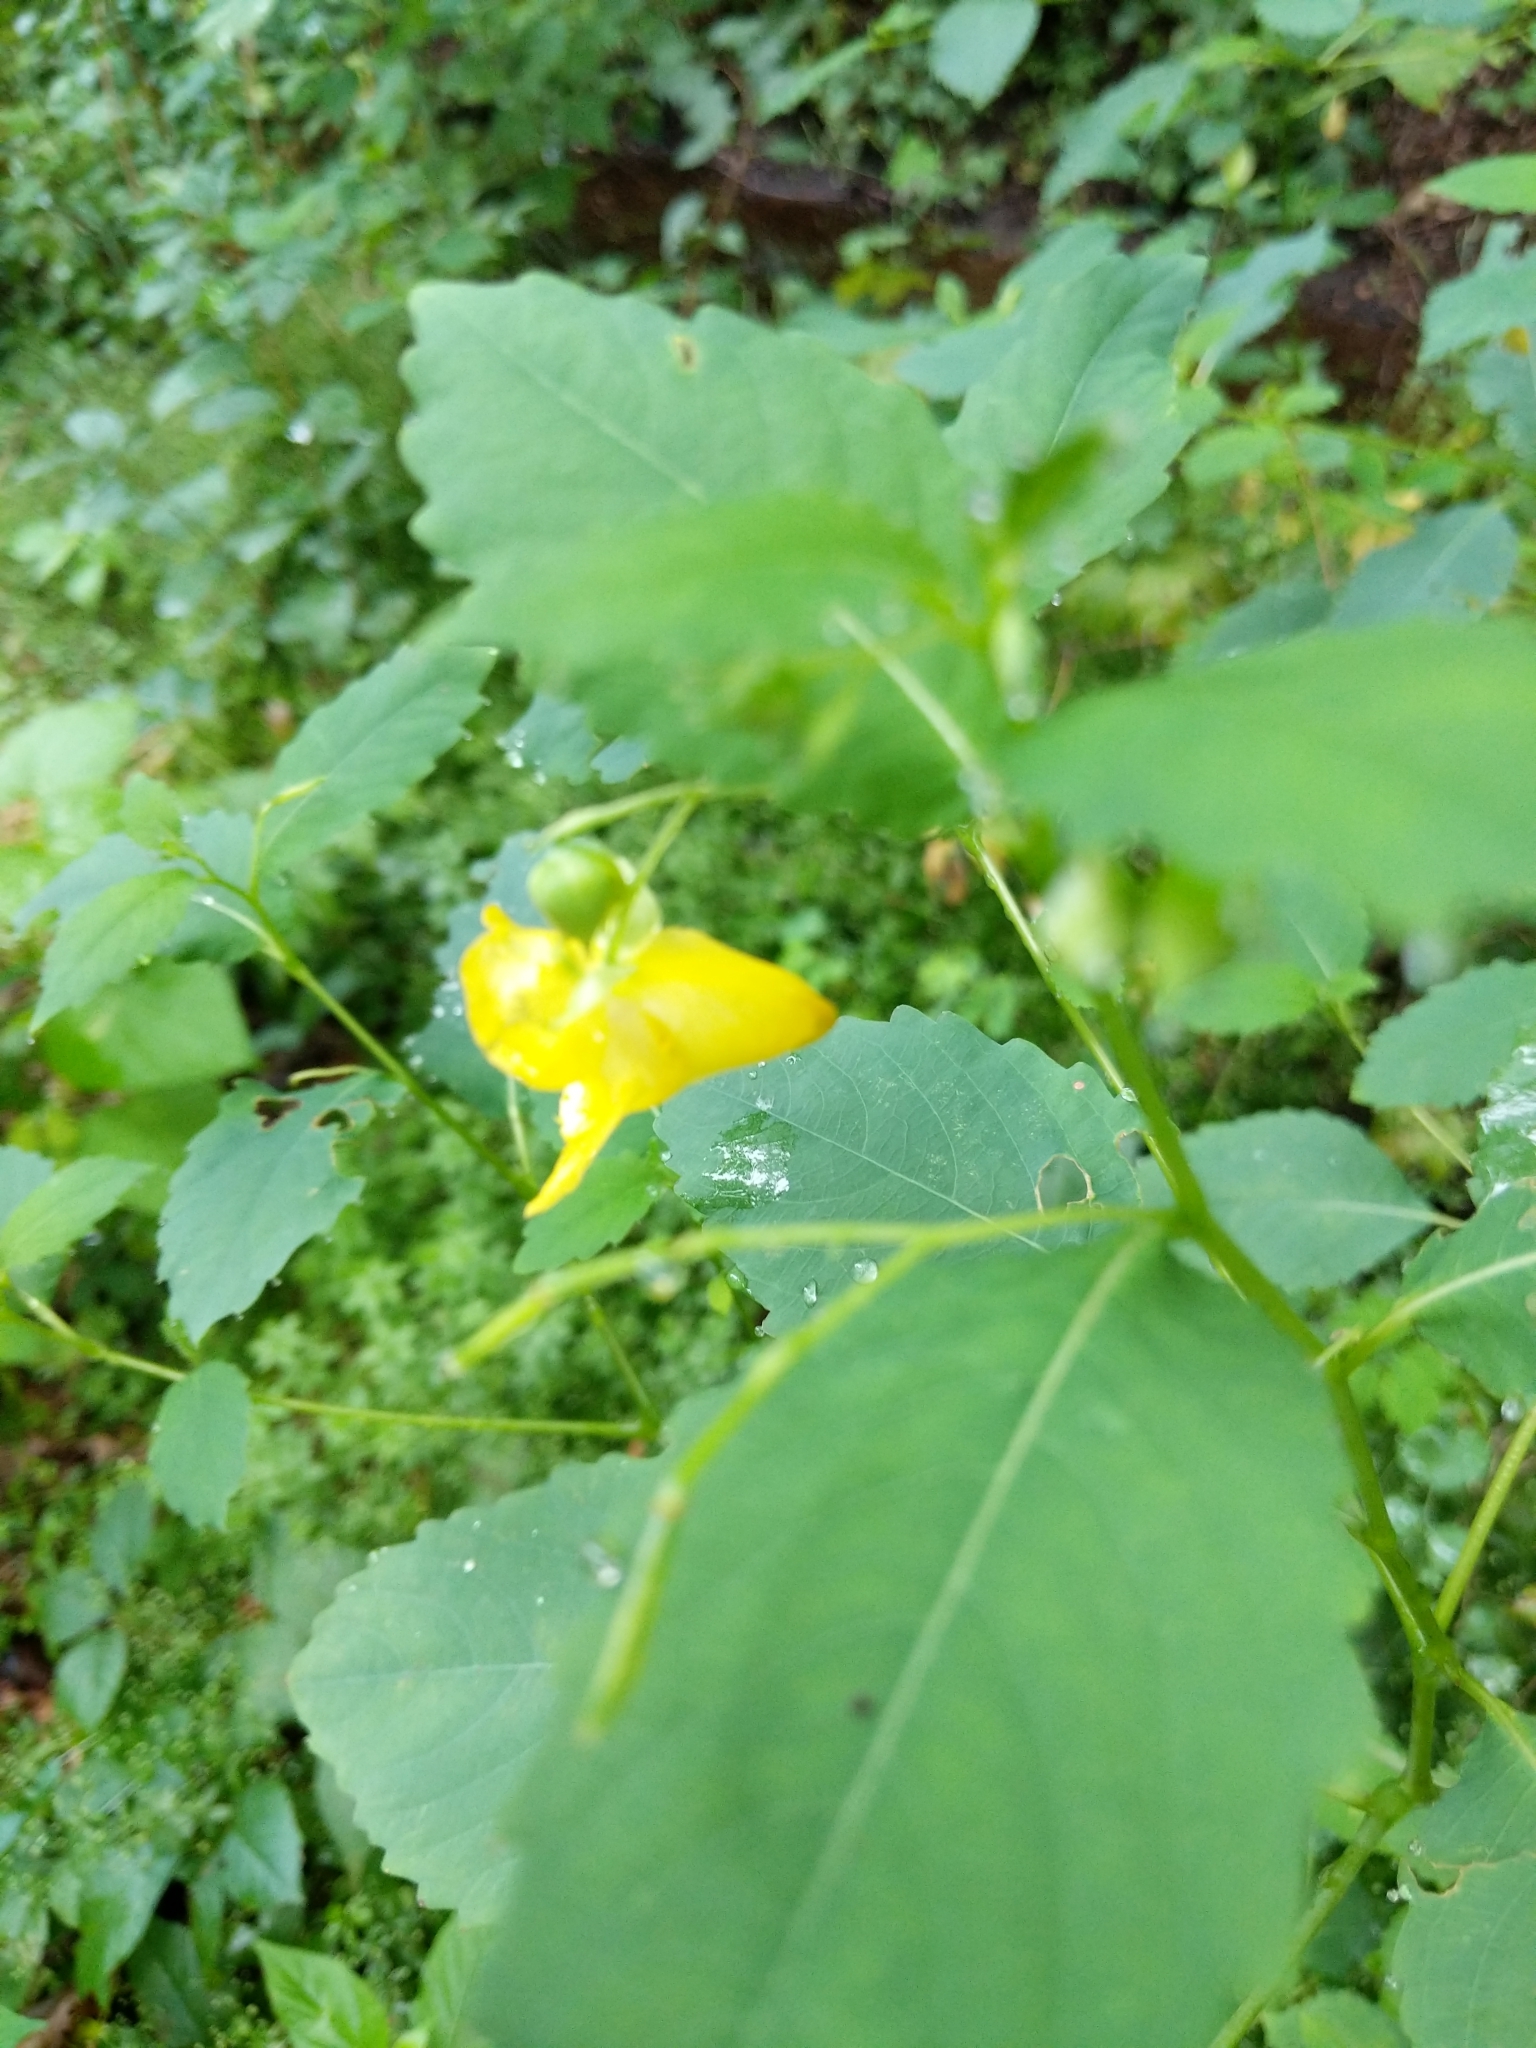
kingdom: Plantae
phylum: Tracheophyta
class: Magnoliopsida
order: Ericales
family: Balsaminaceae
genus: Impatiens
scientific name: Impatiens pallida
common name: Pale snapweed
